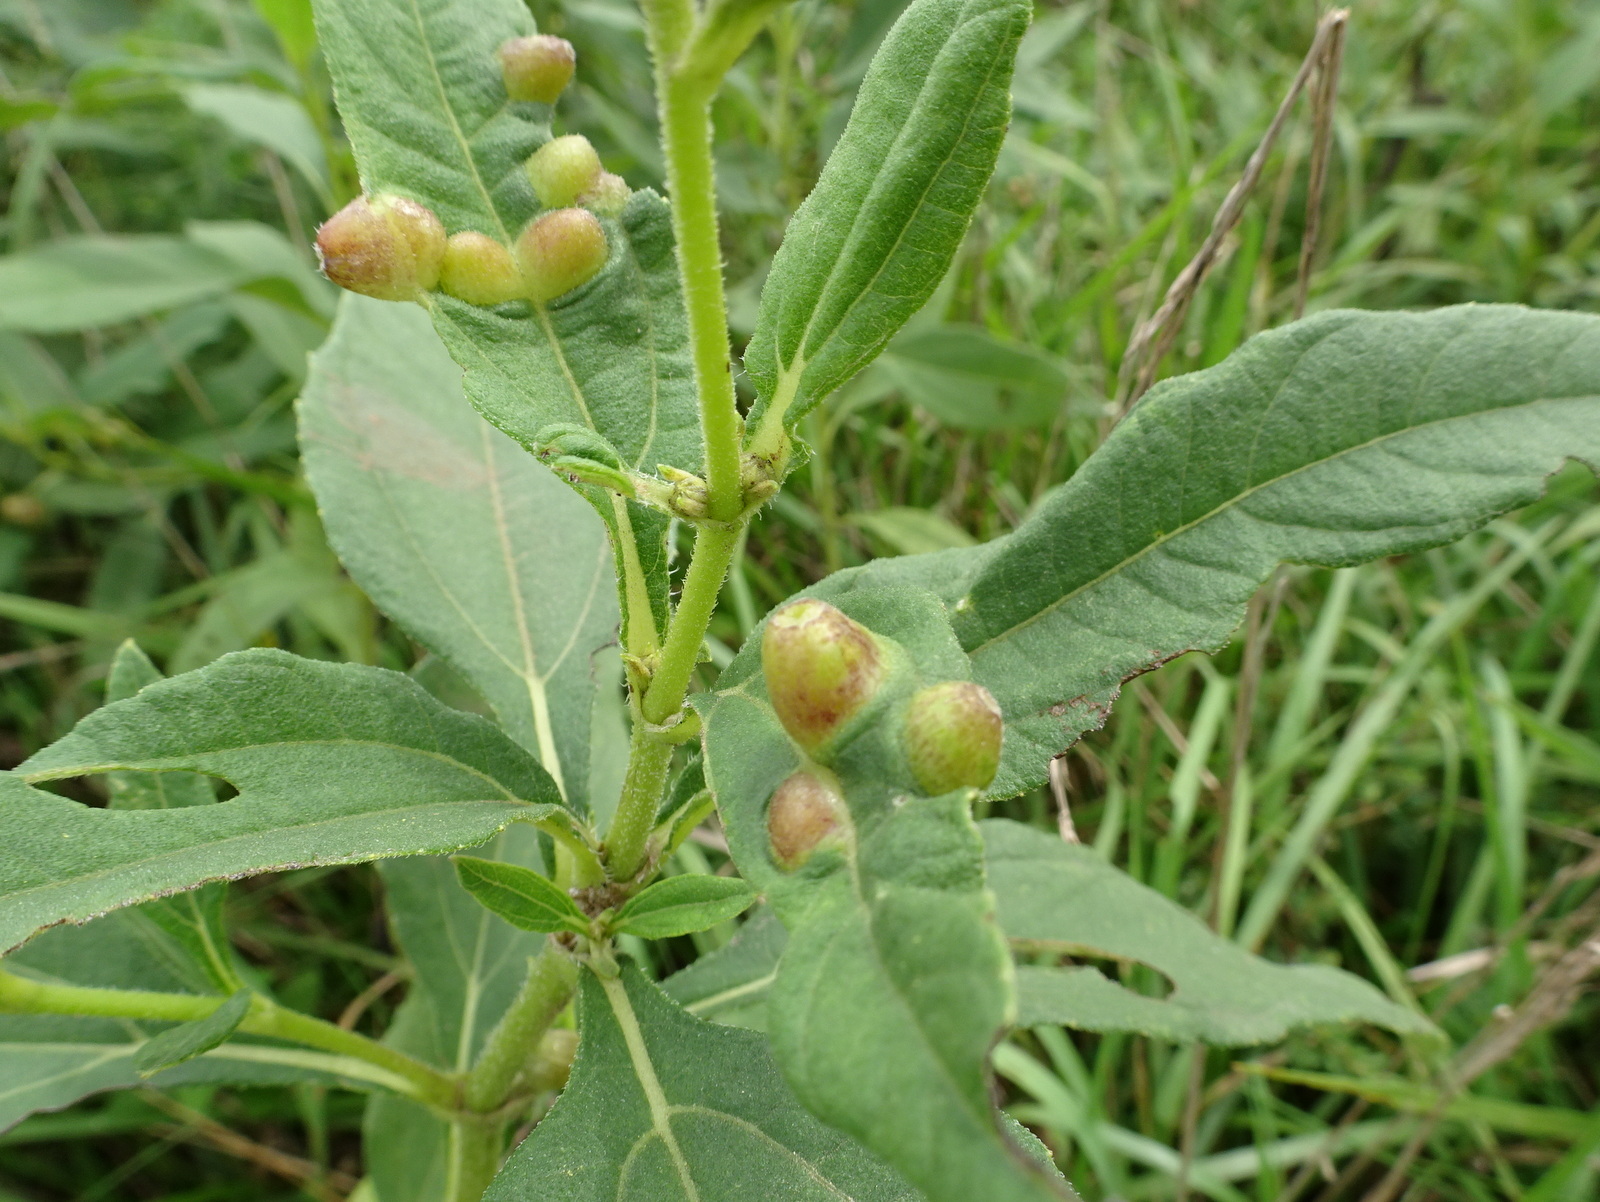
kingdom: Animalia
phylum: Arthropoda
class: Insecta
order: Diptera
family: Cecidomyiidae
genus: Pilodiplosis
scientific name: Pilodiplosis helianthibulla
